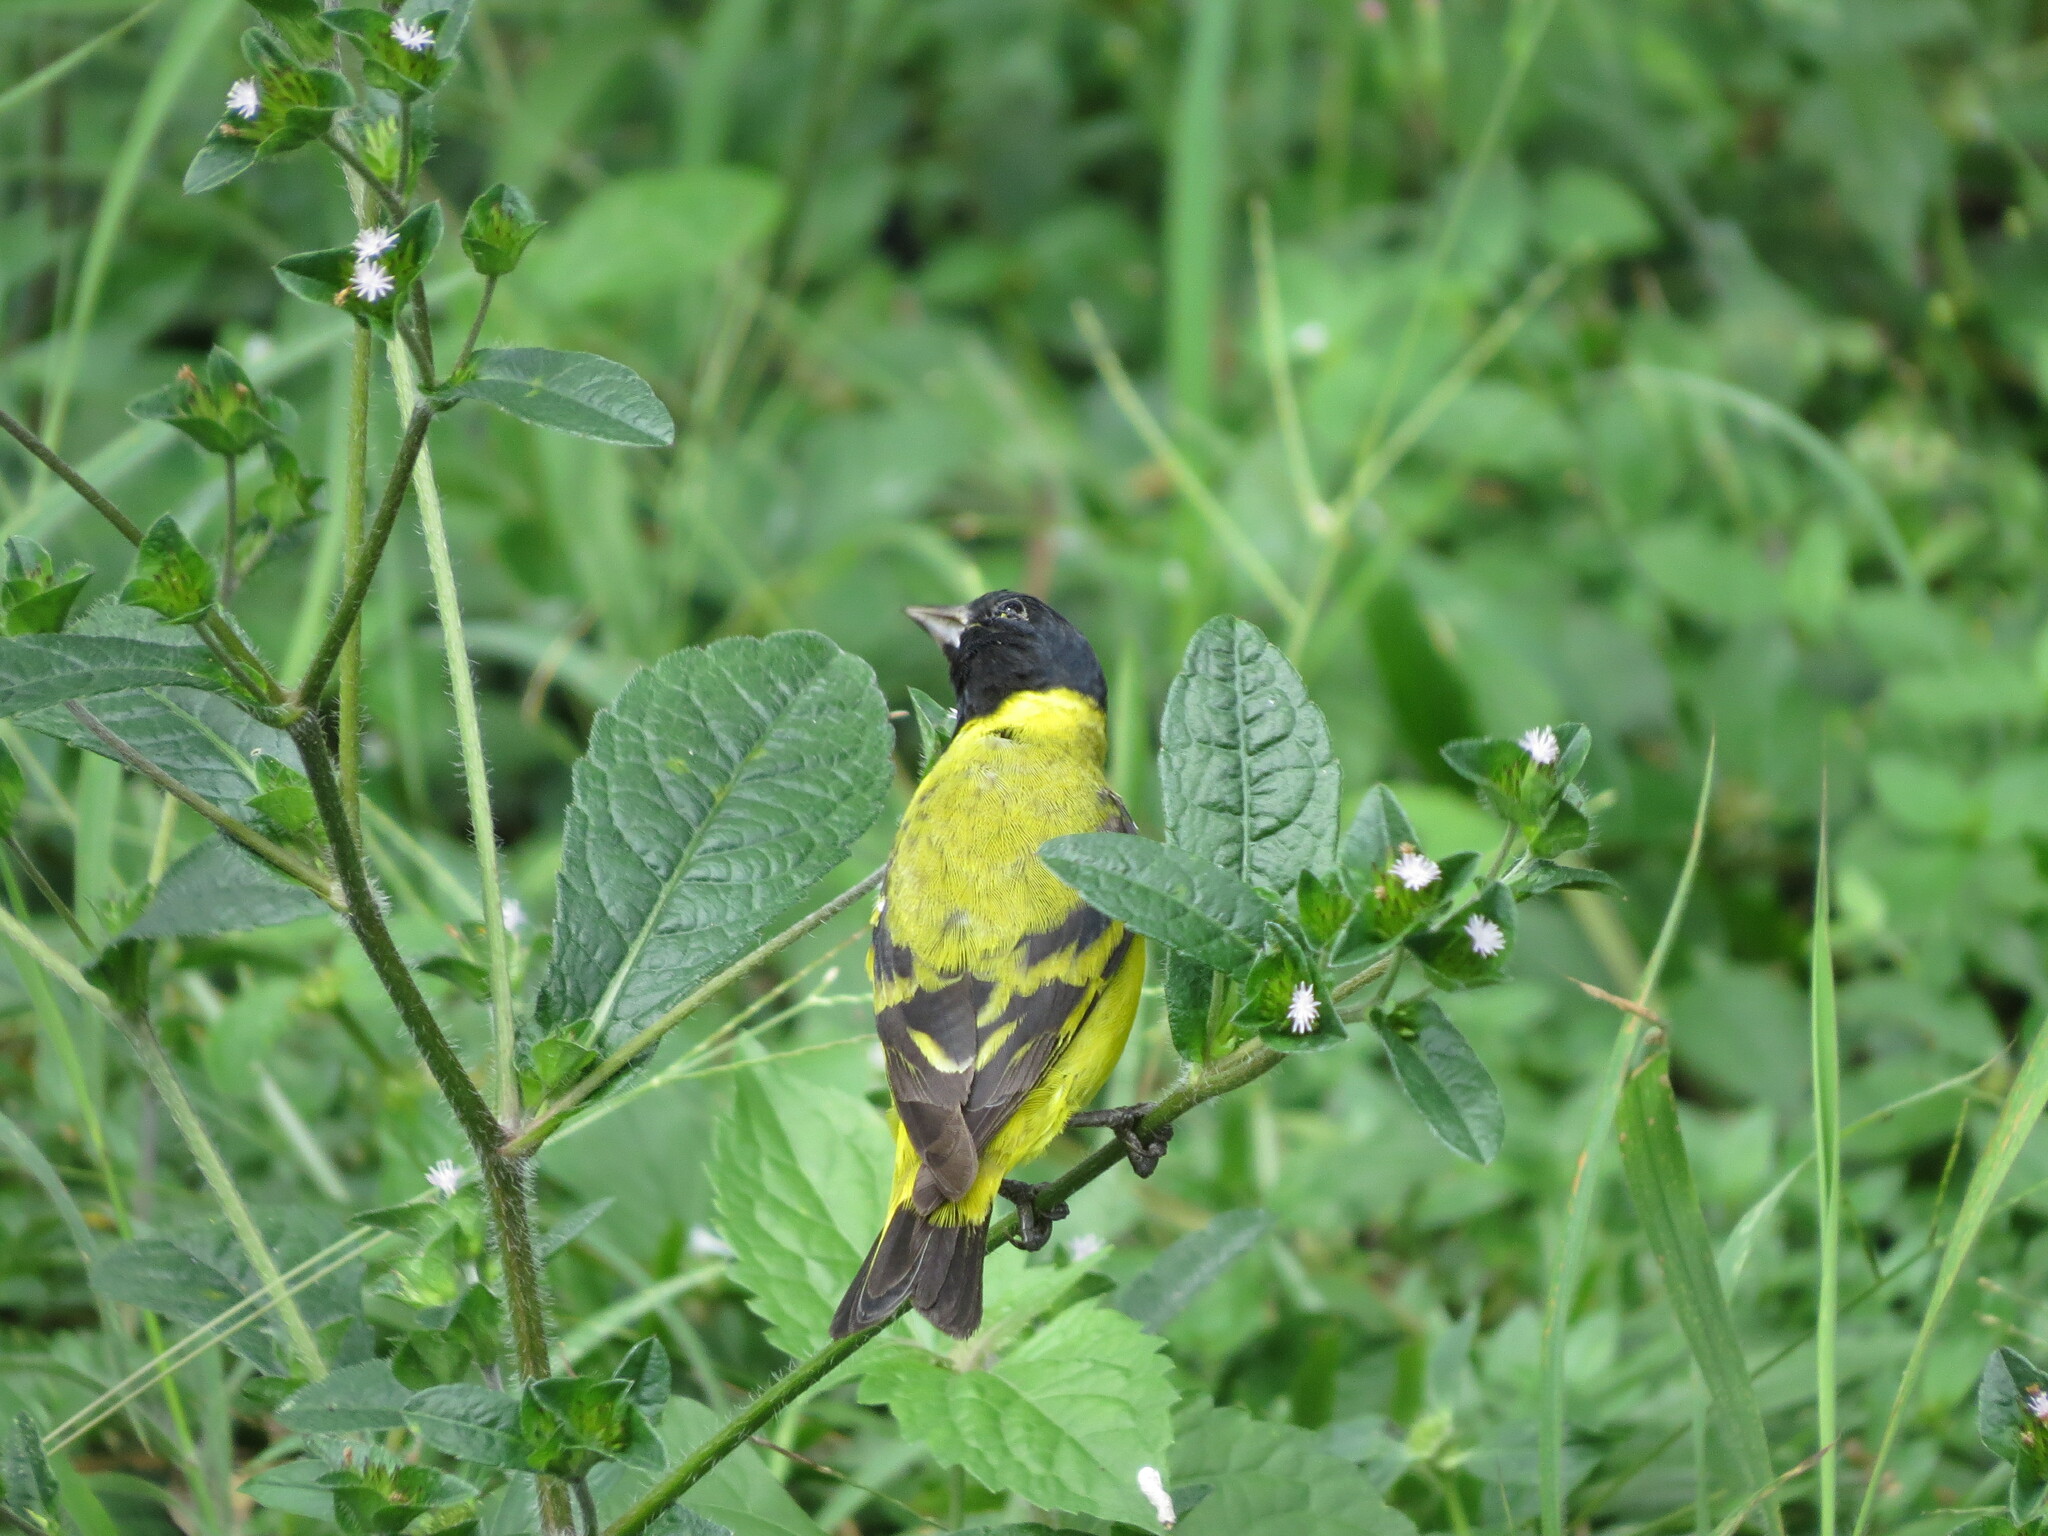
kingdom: Animalia
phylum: Chordata
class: Aves
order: Passeriformes
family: Fringillidae
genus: Spinus
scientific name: Spinus magellanicus
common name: Hooded siskin
